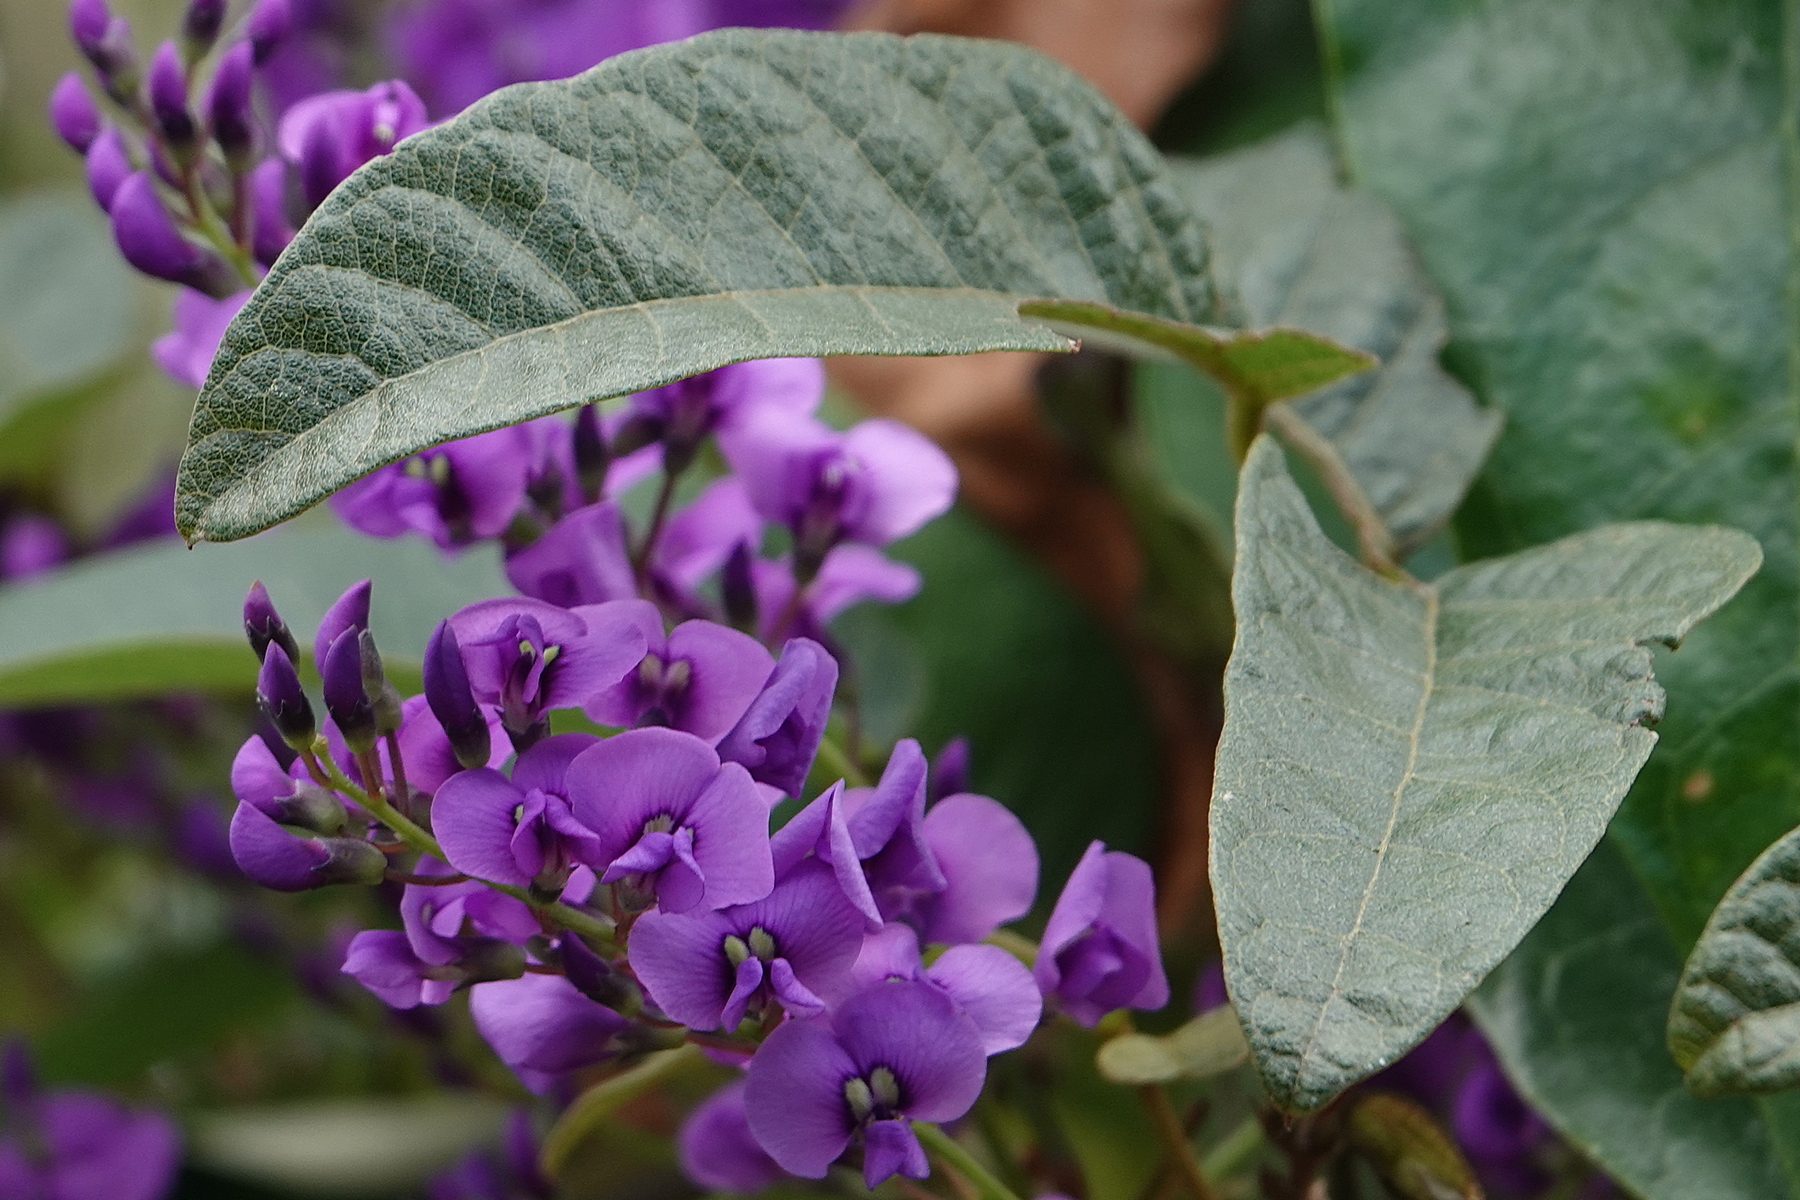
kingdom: Plantae
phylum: Tracheophyta
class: Magnoliopsida
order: Fabales
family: Fabaceae
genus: Hardenbergia
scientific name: Hardenbergia violacea
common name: Coral-pea
